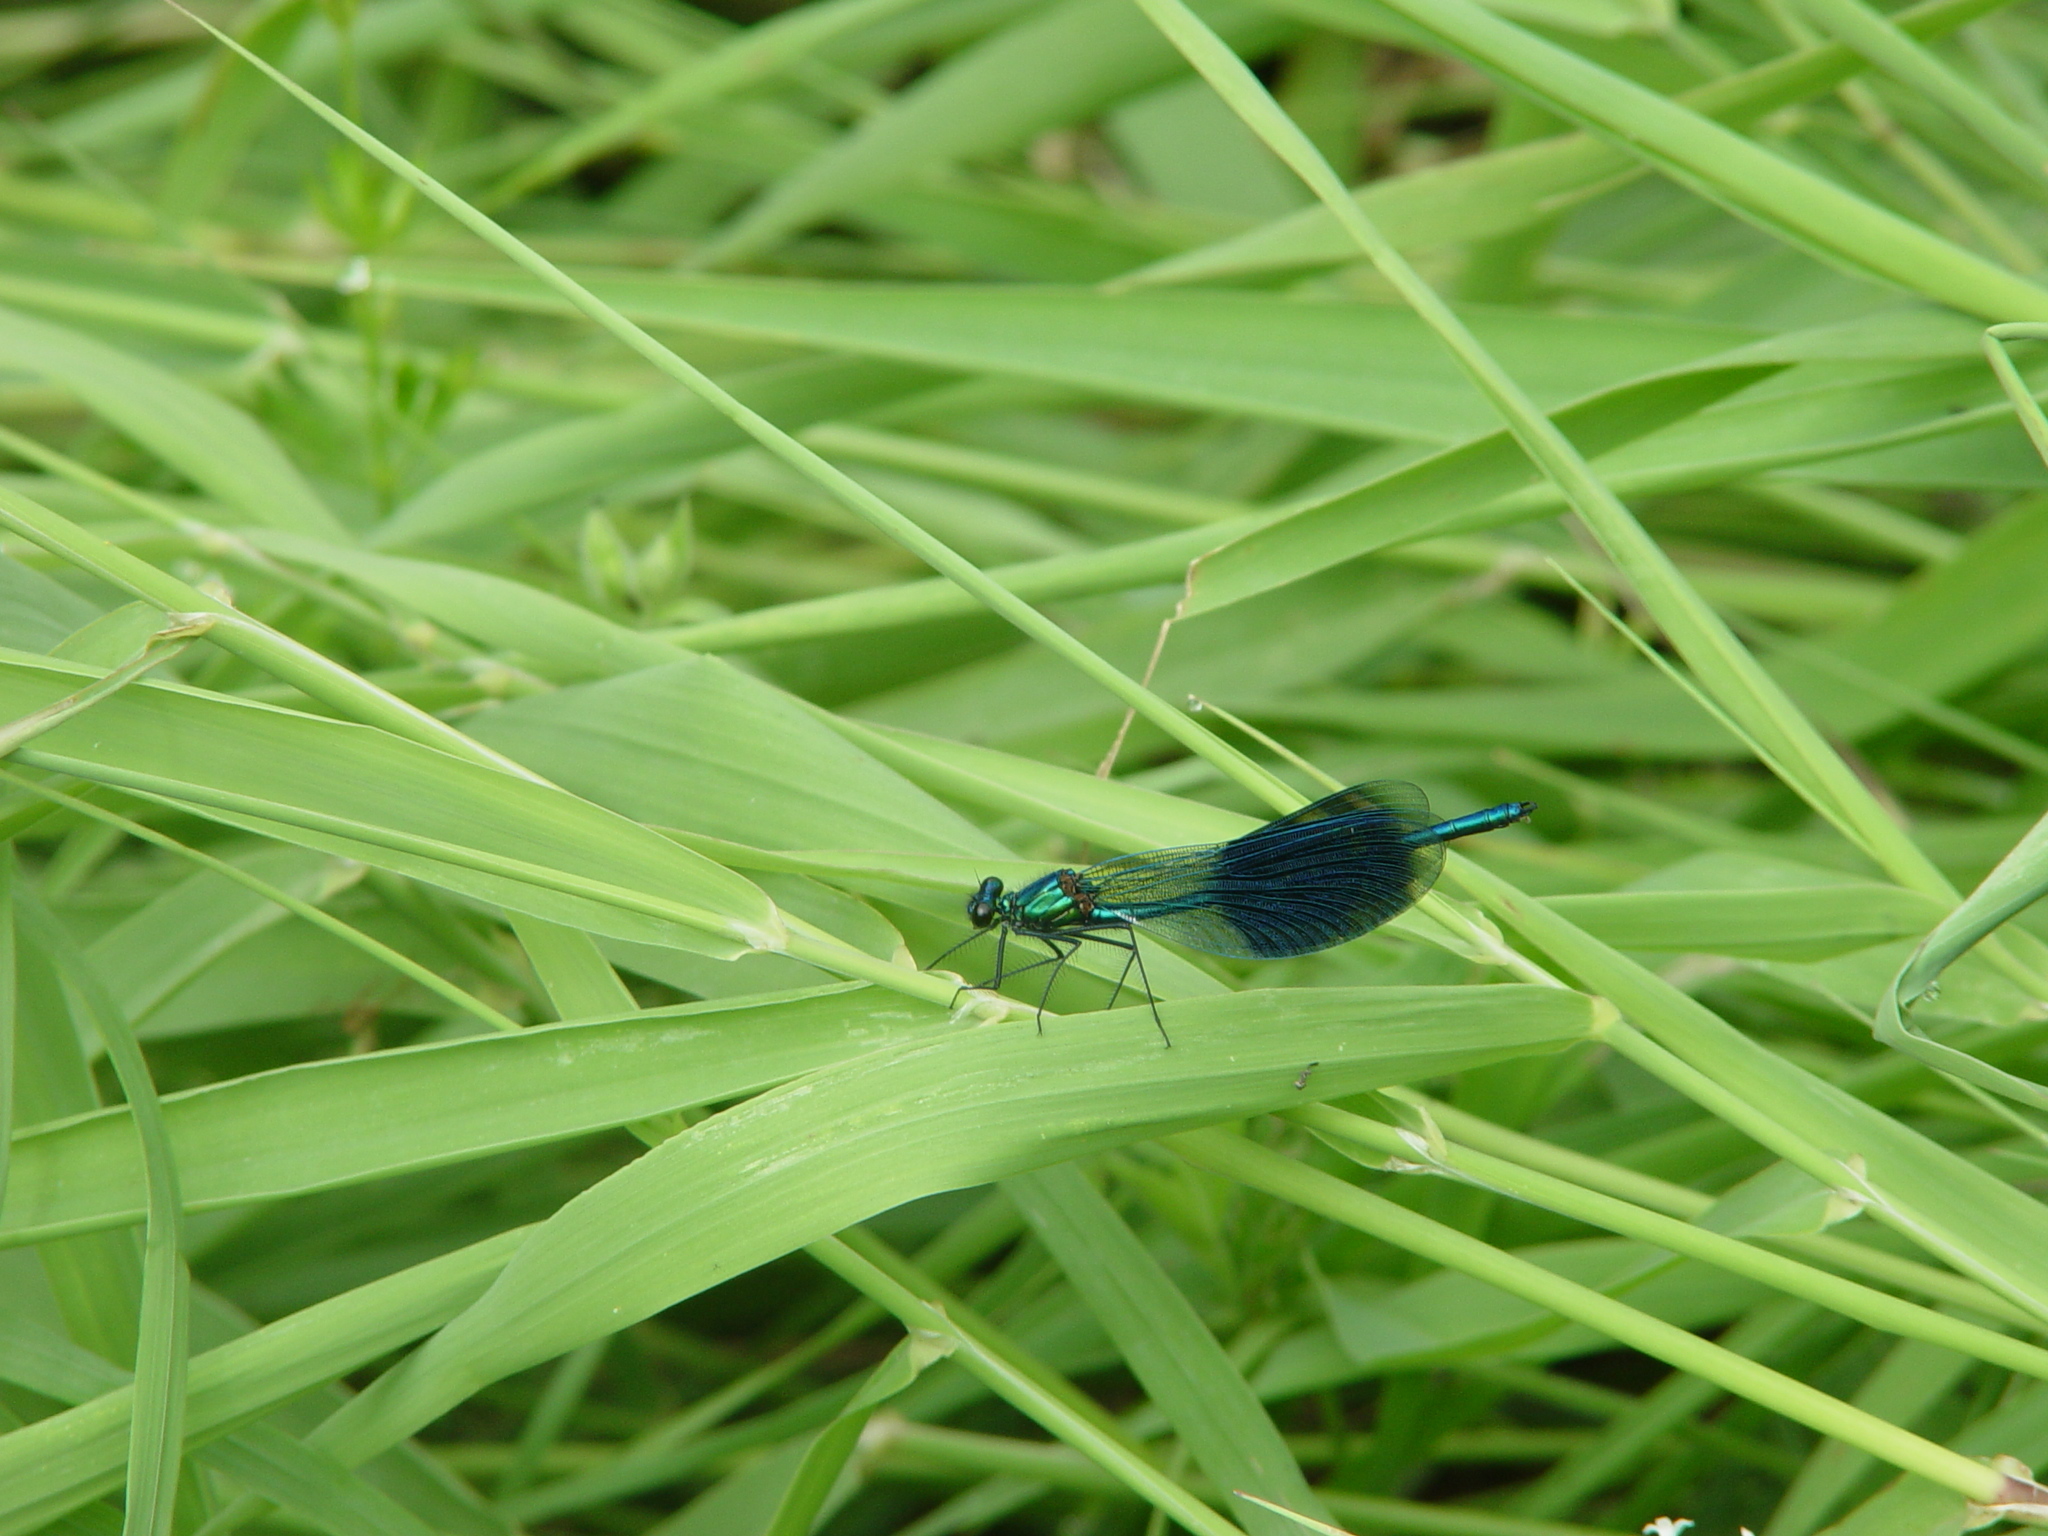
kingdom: Animalia
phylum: Arthropoda
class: Insecta
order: Odonata
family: Calopterygidae
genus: Calopteryx
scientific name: Calopteryx splendens
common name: Banded demoiselle
